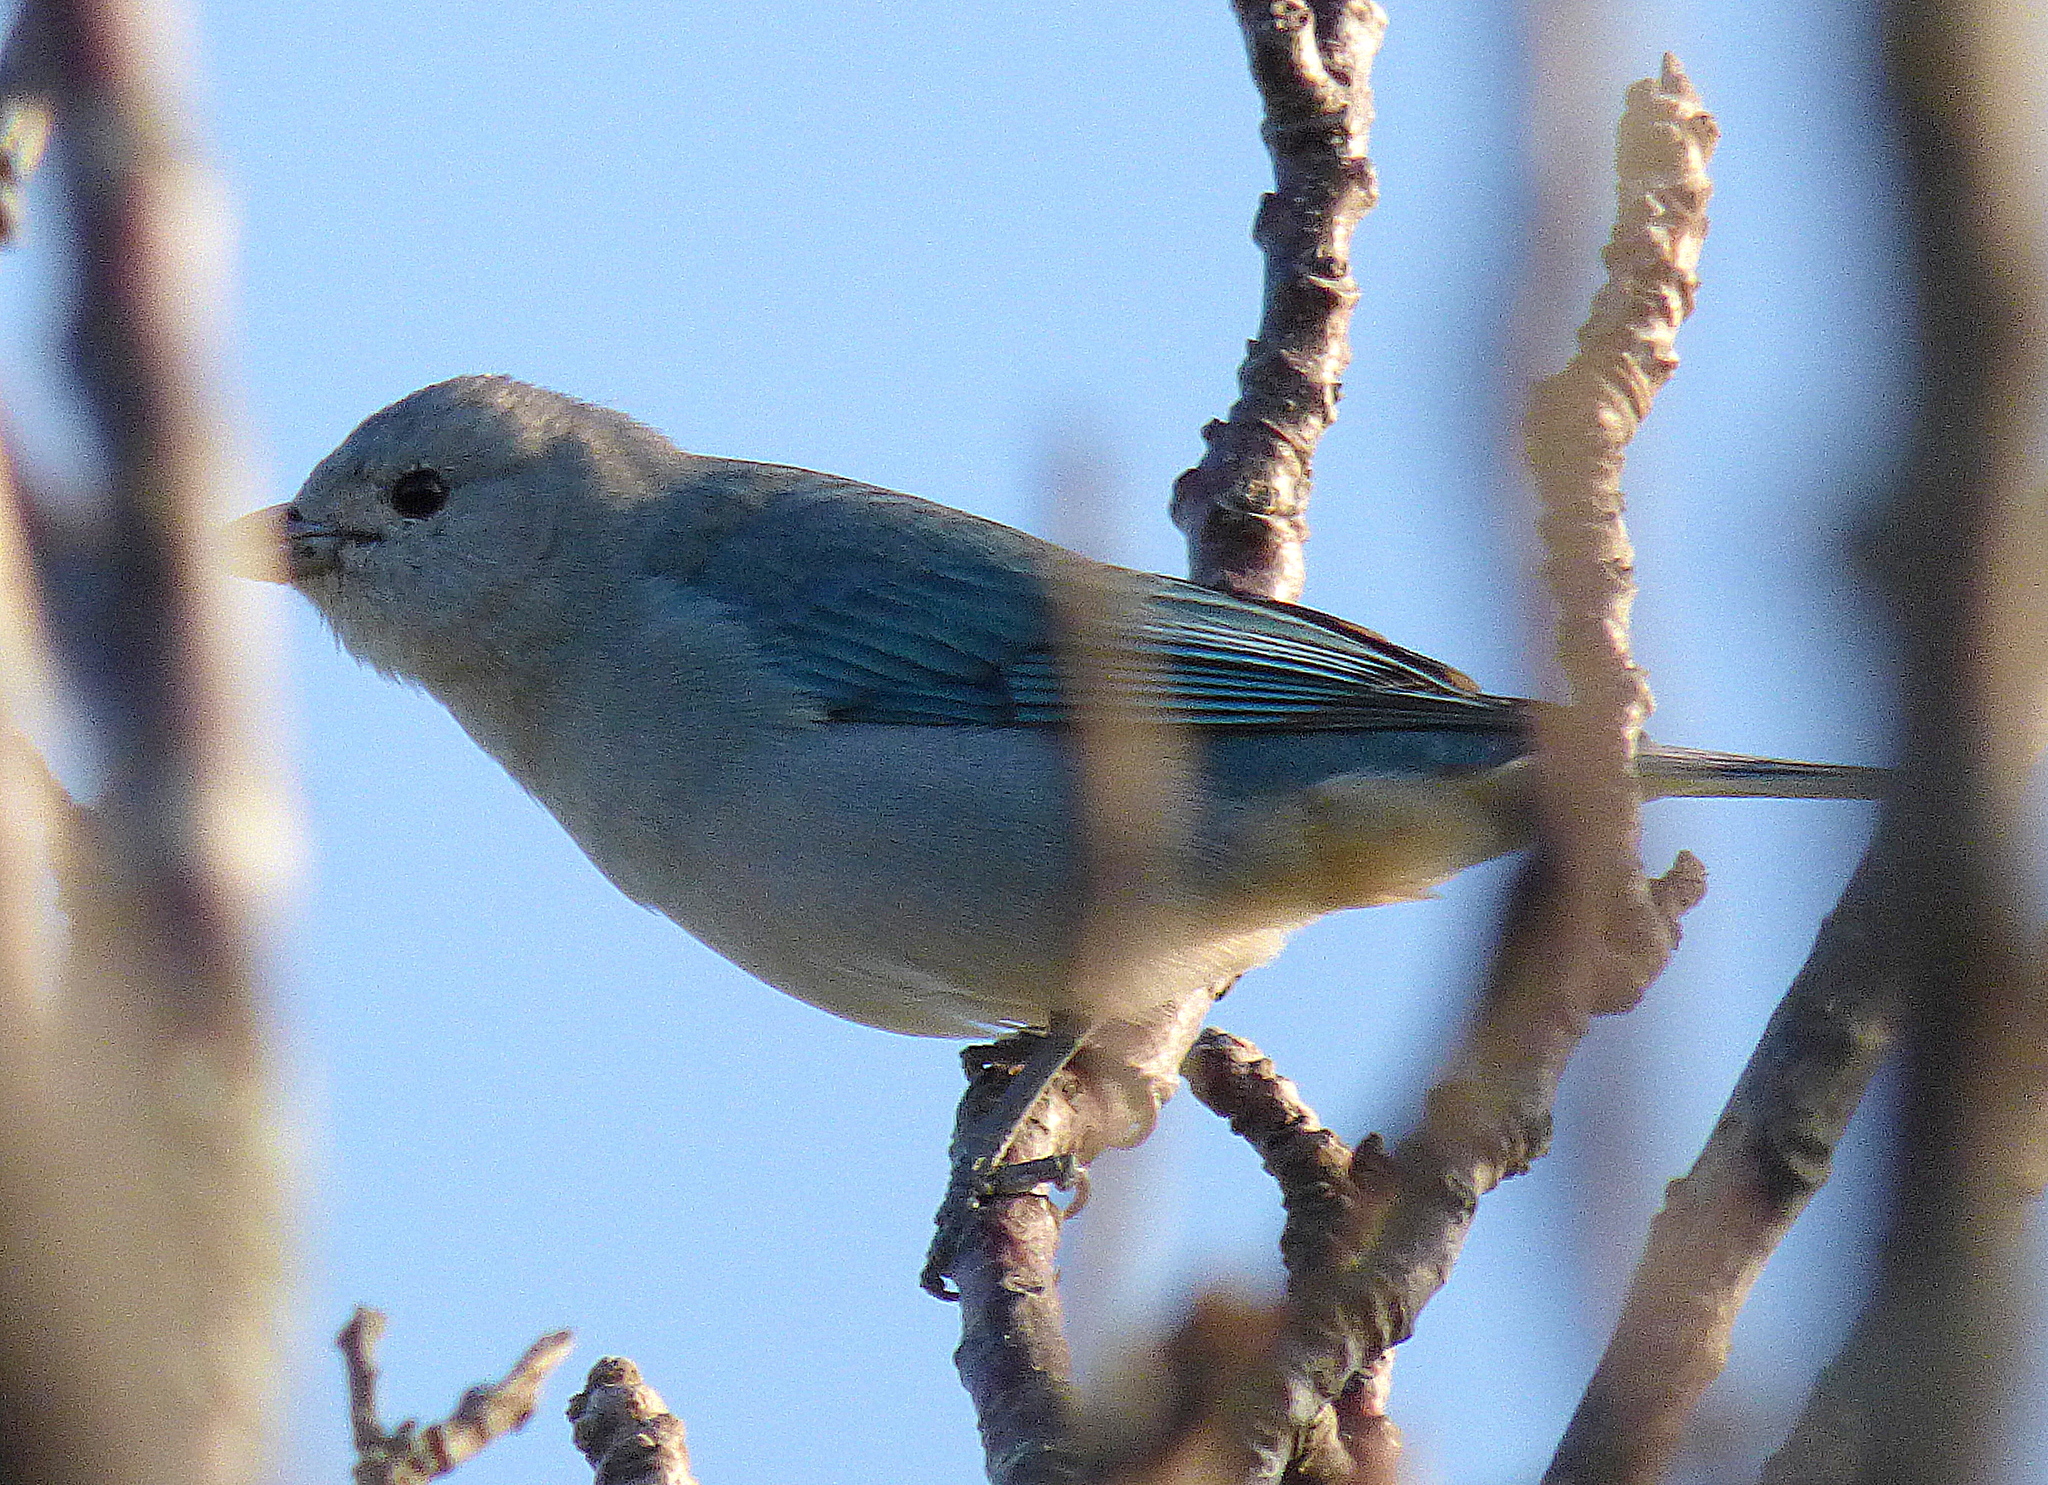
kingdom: Animalia
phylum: Chordata
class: Aves
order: Passeriformes
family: Thraupidae
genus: Thraupis
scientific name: Thraupis sayaca
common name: Sayaca tanager
